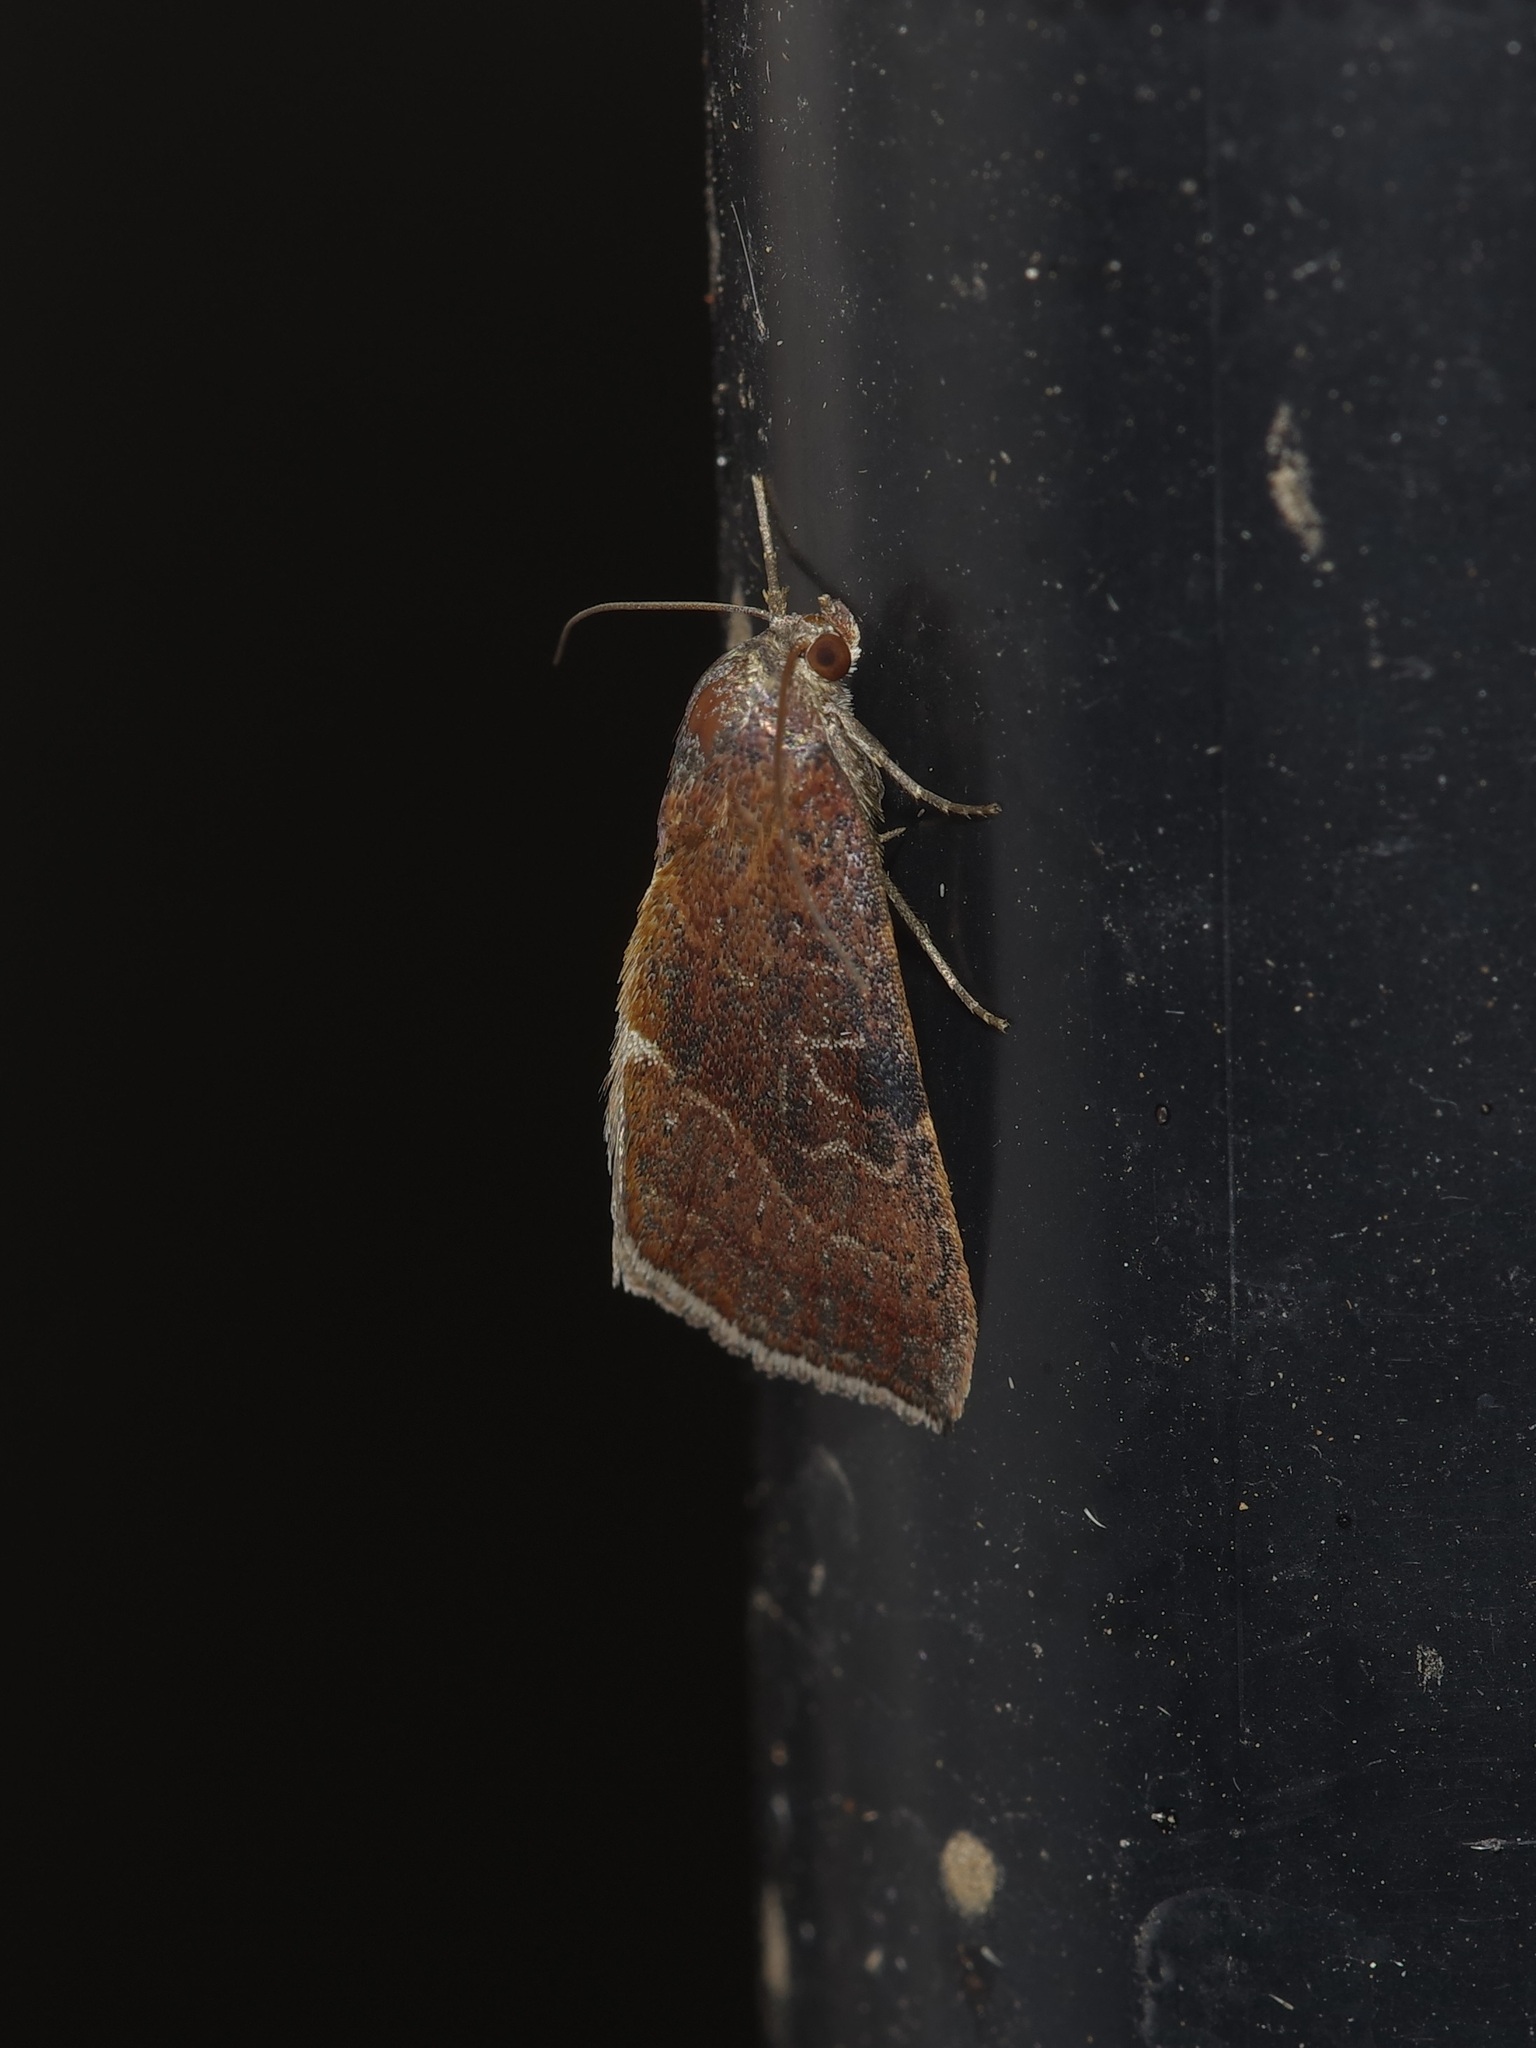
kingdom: Animalia
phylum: Arthropoda
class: Insecta
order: Lepidoptera
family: Noctuidae
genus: Galgula
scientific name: Galgula partita
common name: Wedgeling
